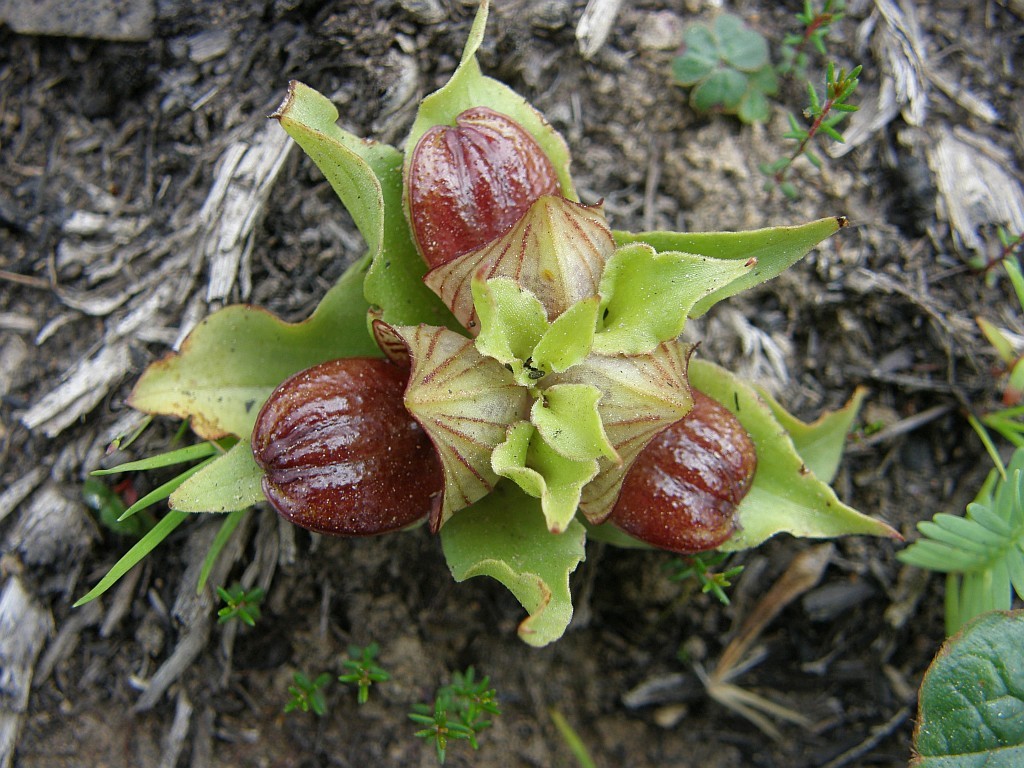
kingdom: Plantae
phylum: Tracheophyta
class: Liliopsida
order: Asparagales
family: Orchidaceae
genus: Satyrium
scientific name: Satyrium pumilum
